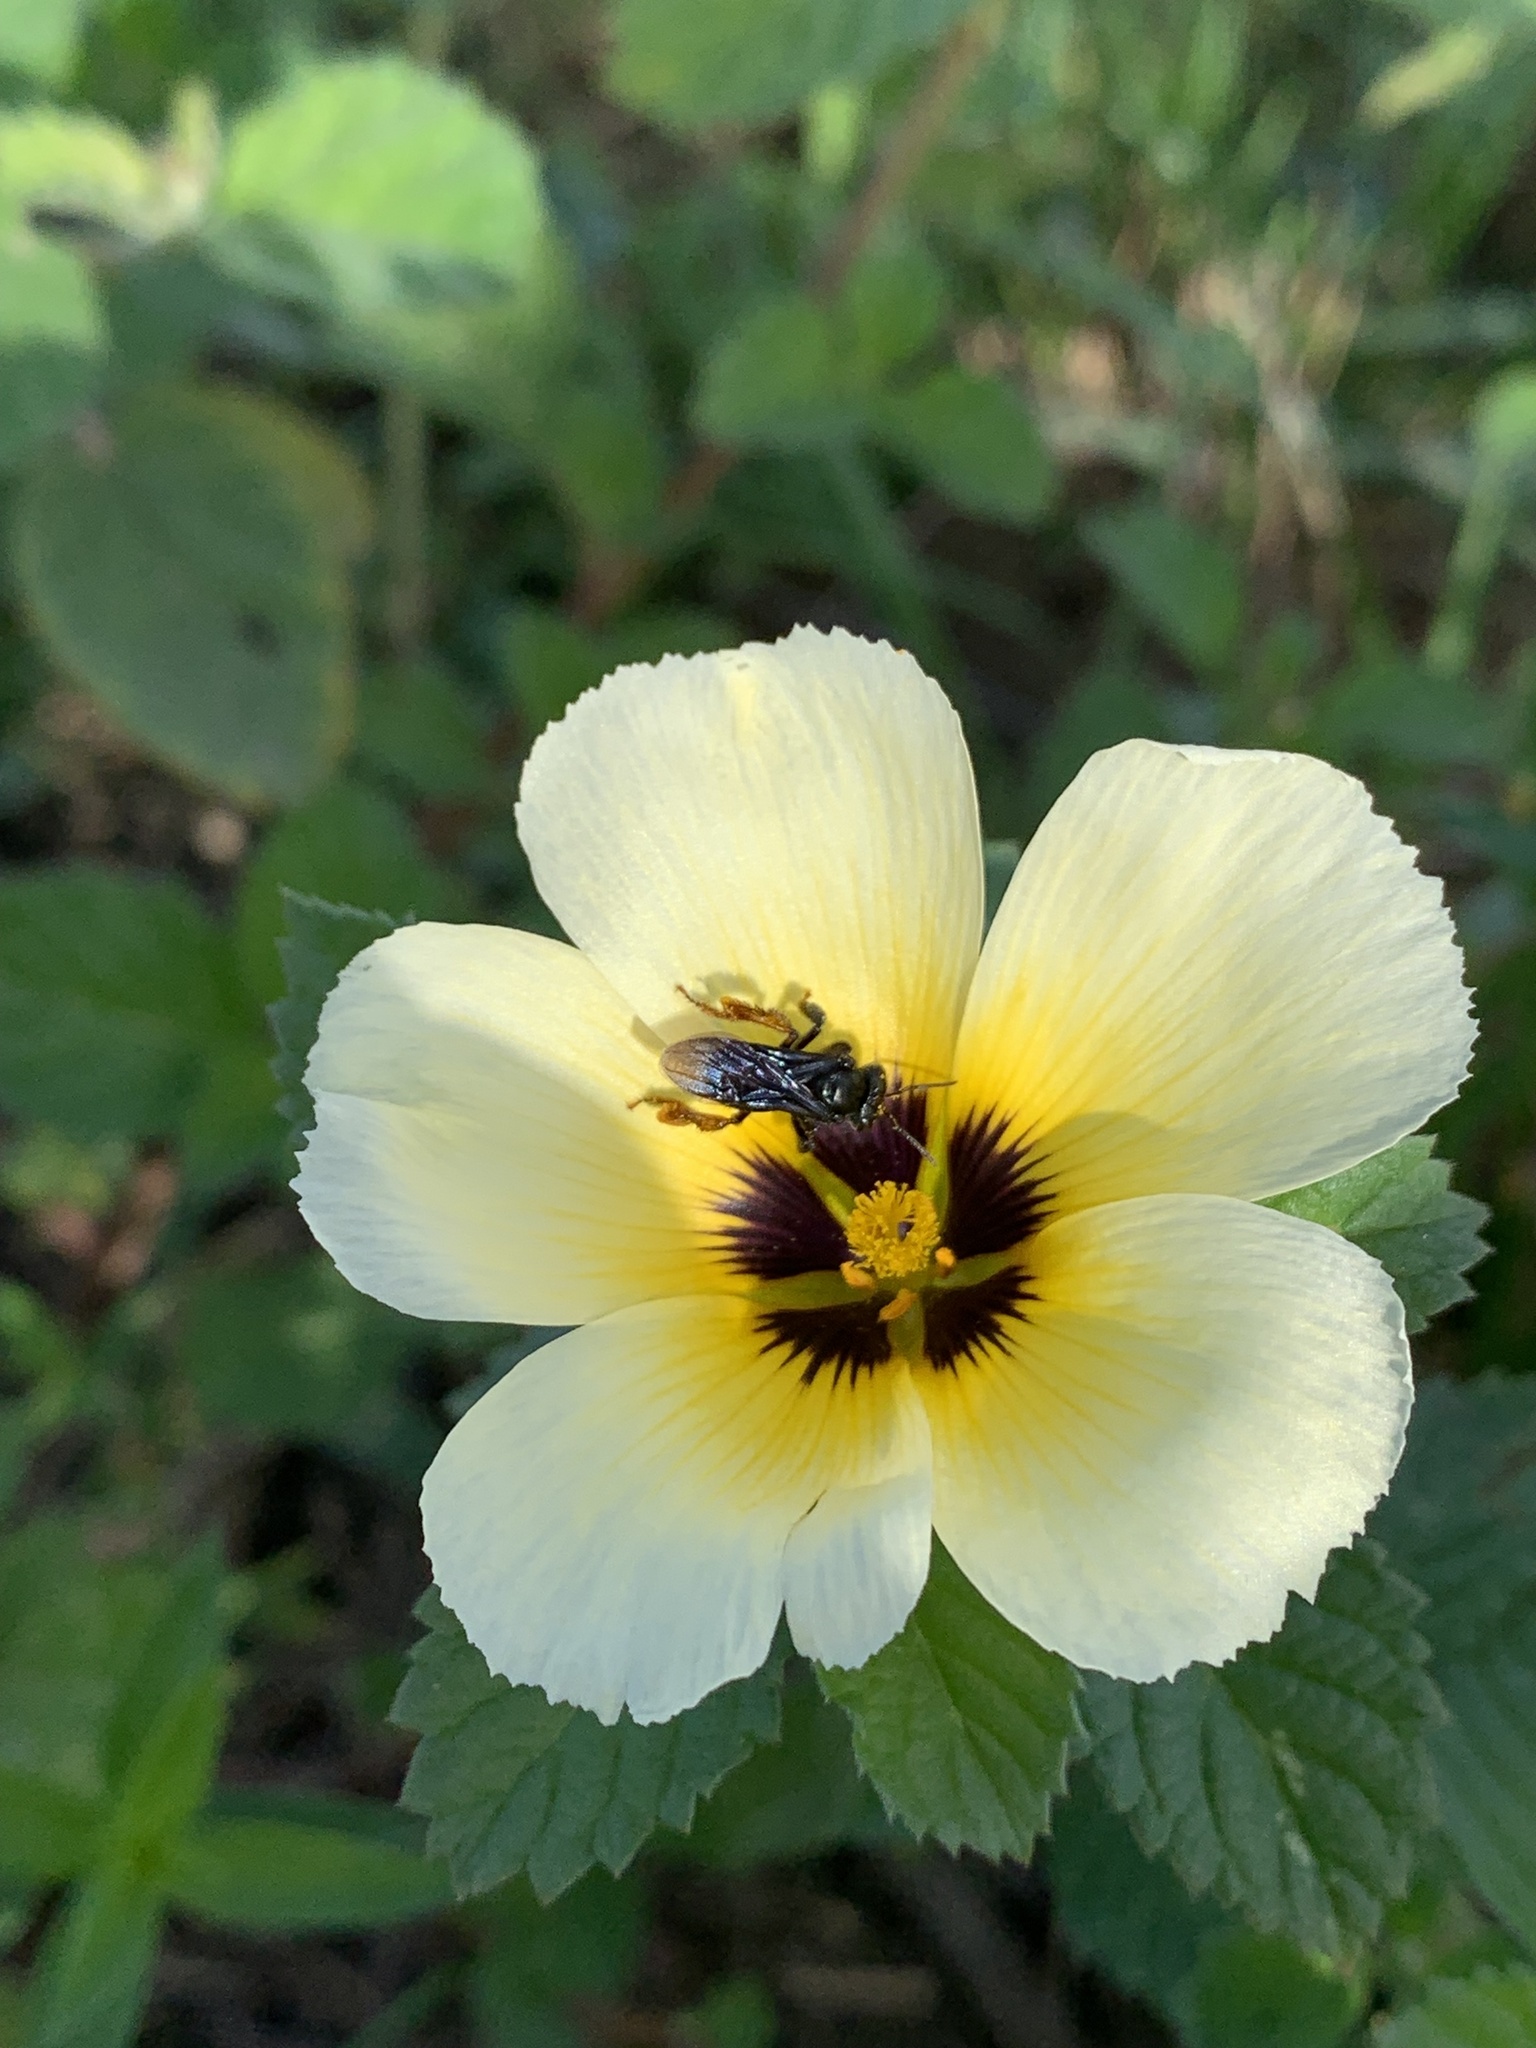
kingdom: Animalia
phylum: Arthropoda
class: Insecta
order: Hymenoptera
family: Apidae
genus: Trigona
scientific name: Trigona spinipes
